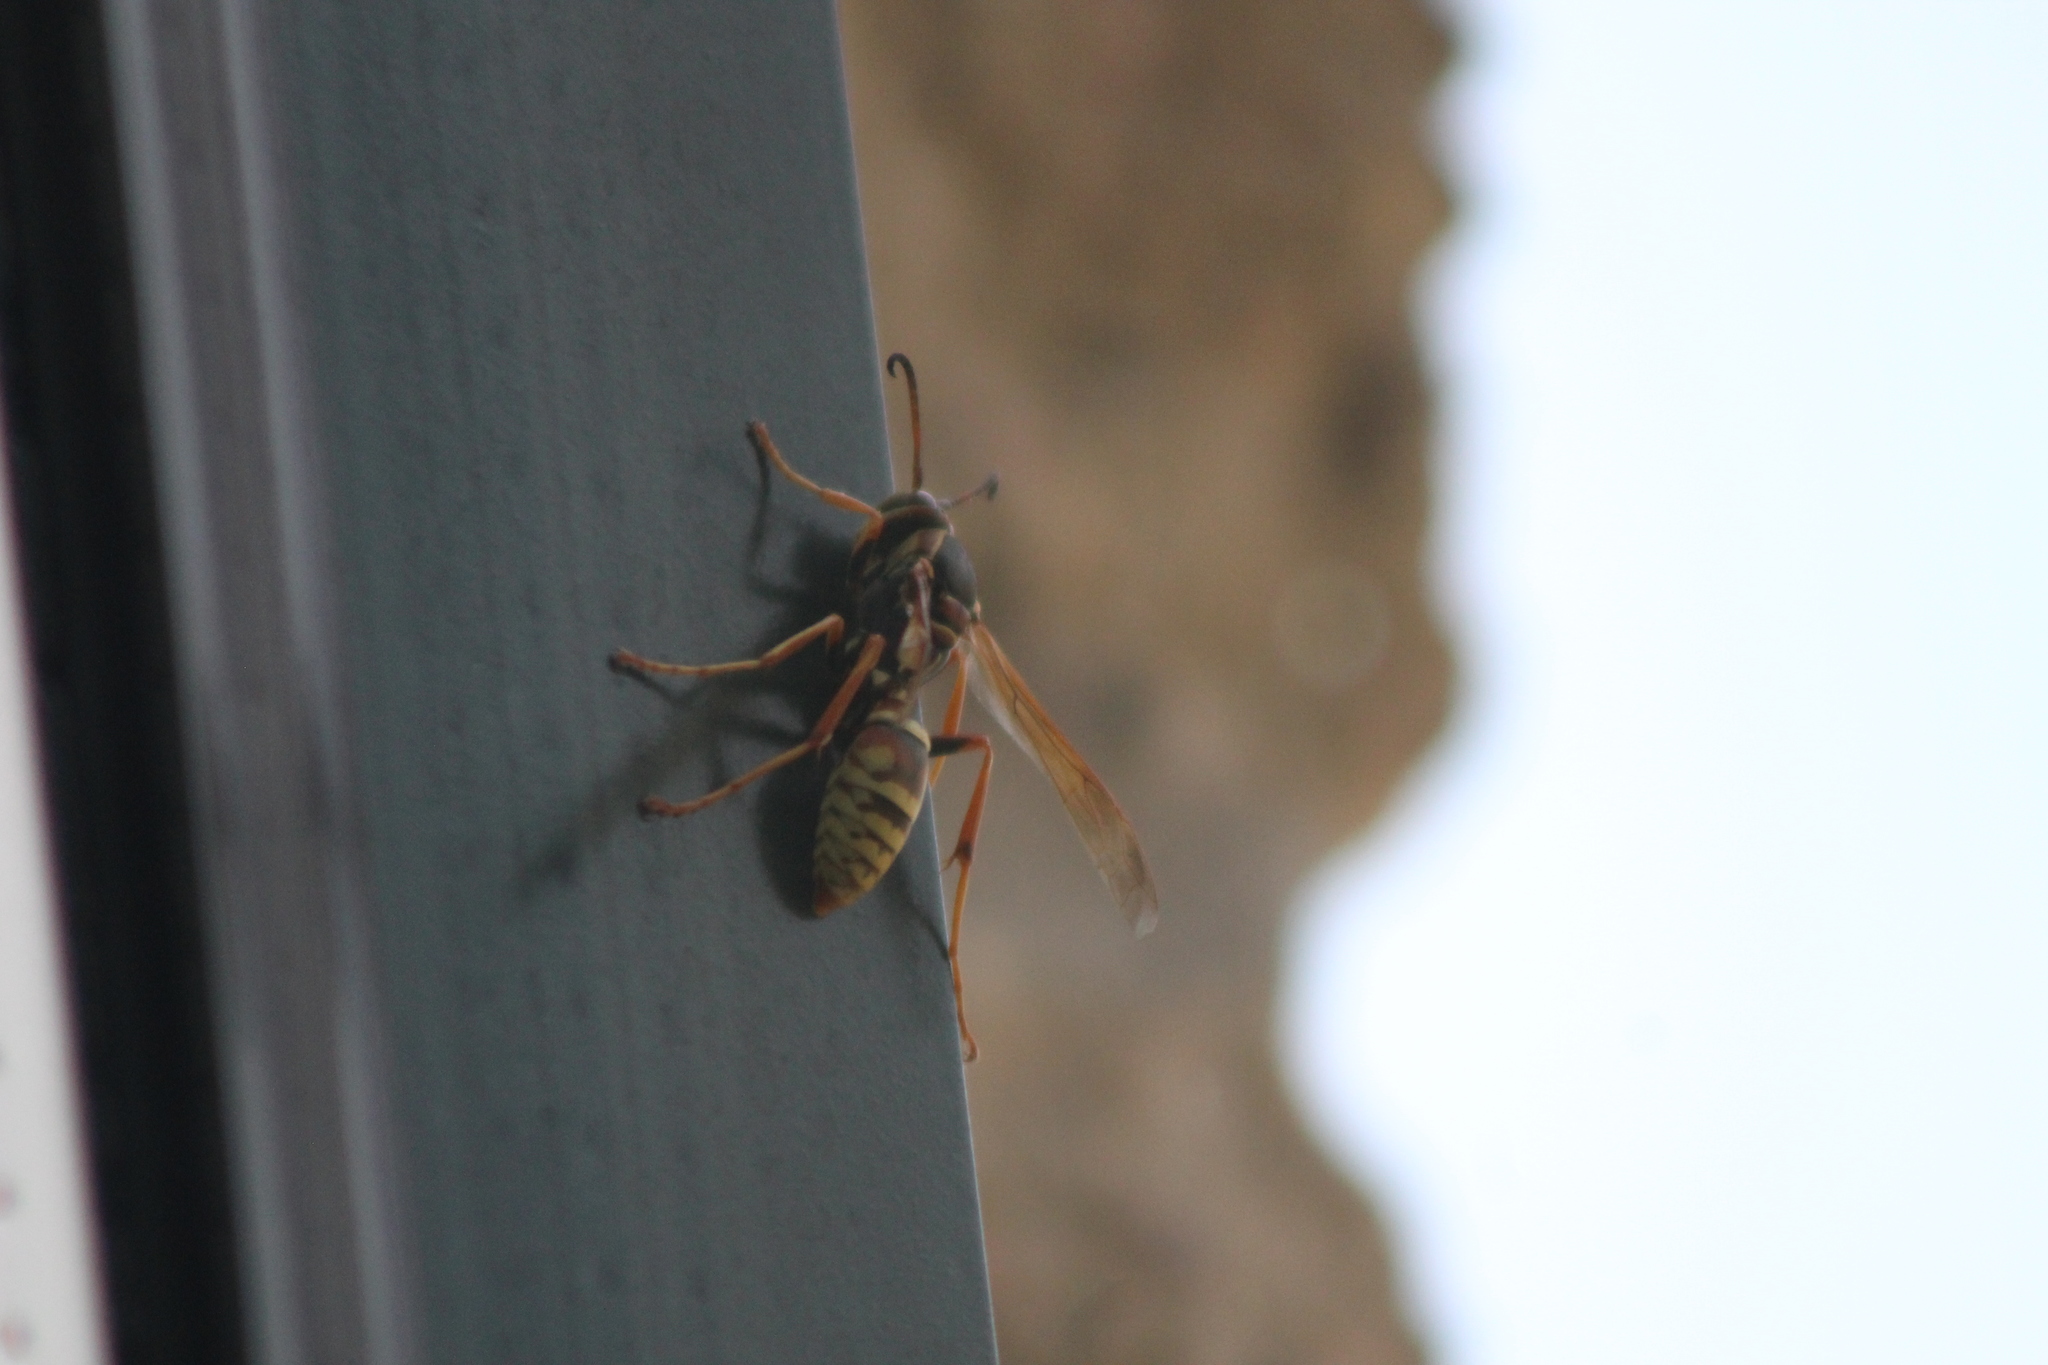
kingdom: Animalia
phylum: Arthropoda
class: Insecta
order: Hymenoptera
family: Eumenidae
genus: Polistes
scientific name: Polistes fuscatus
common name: Dark paper wasp
